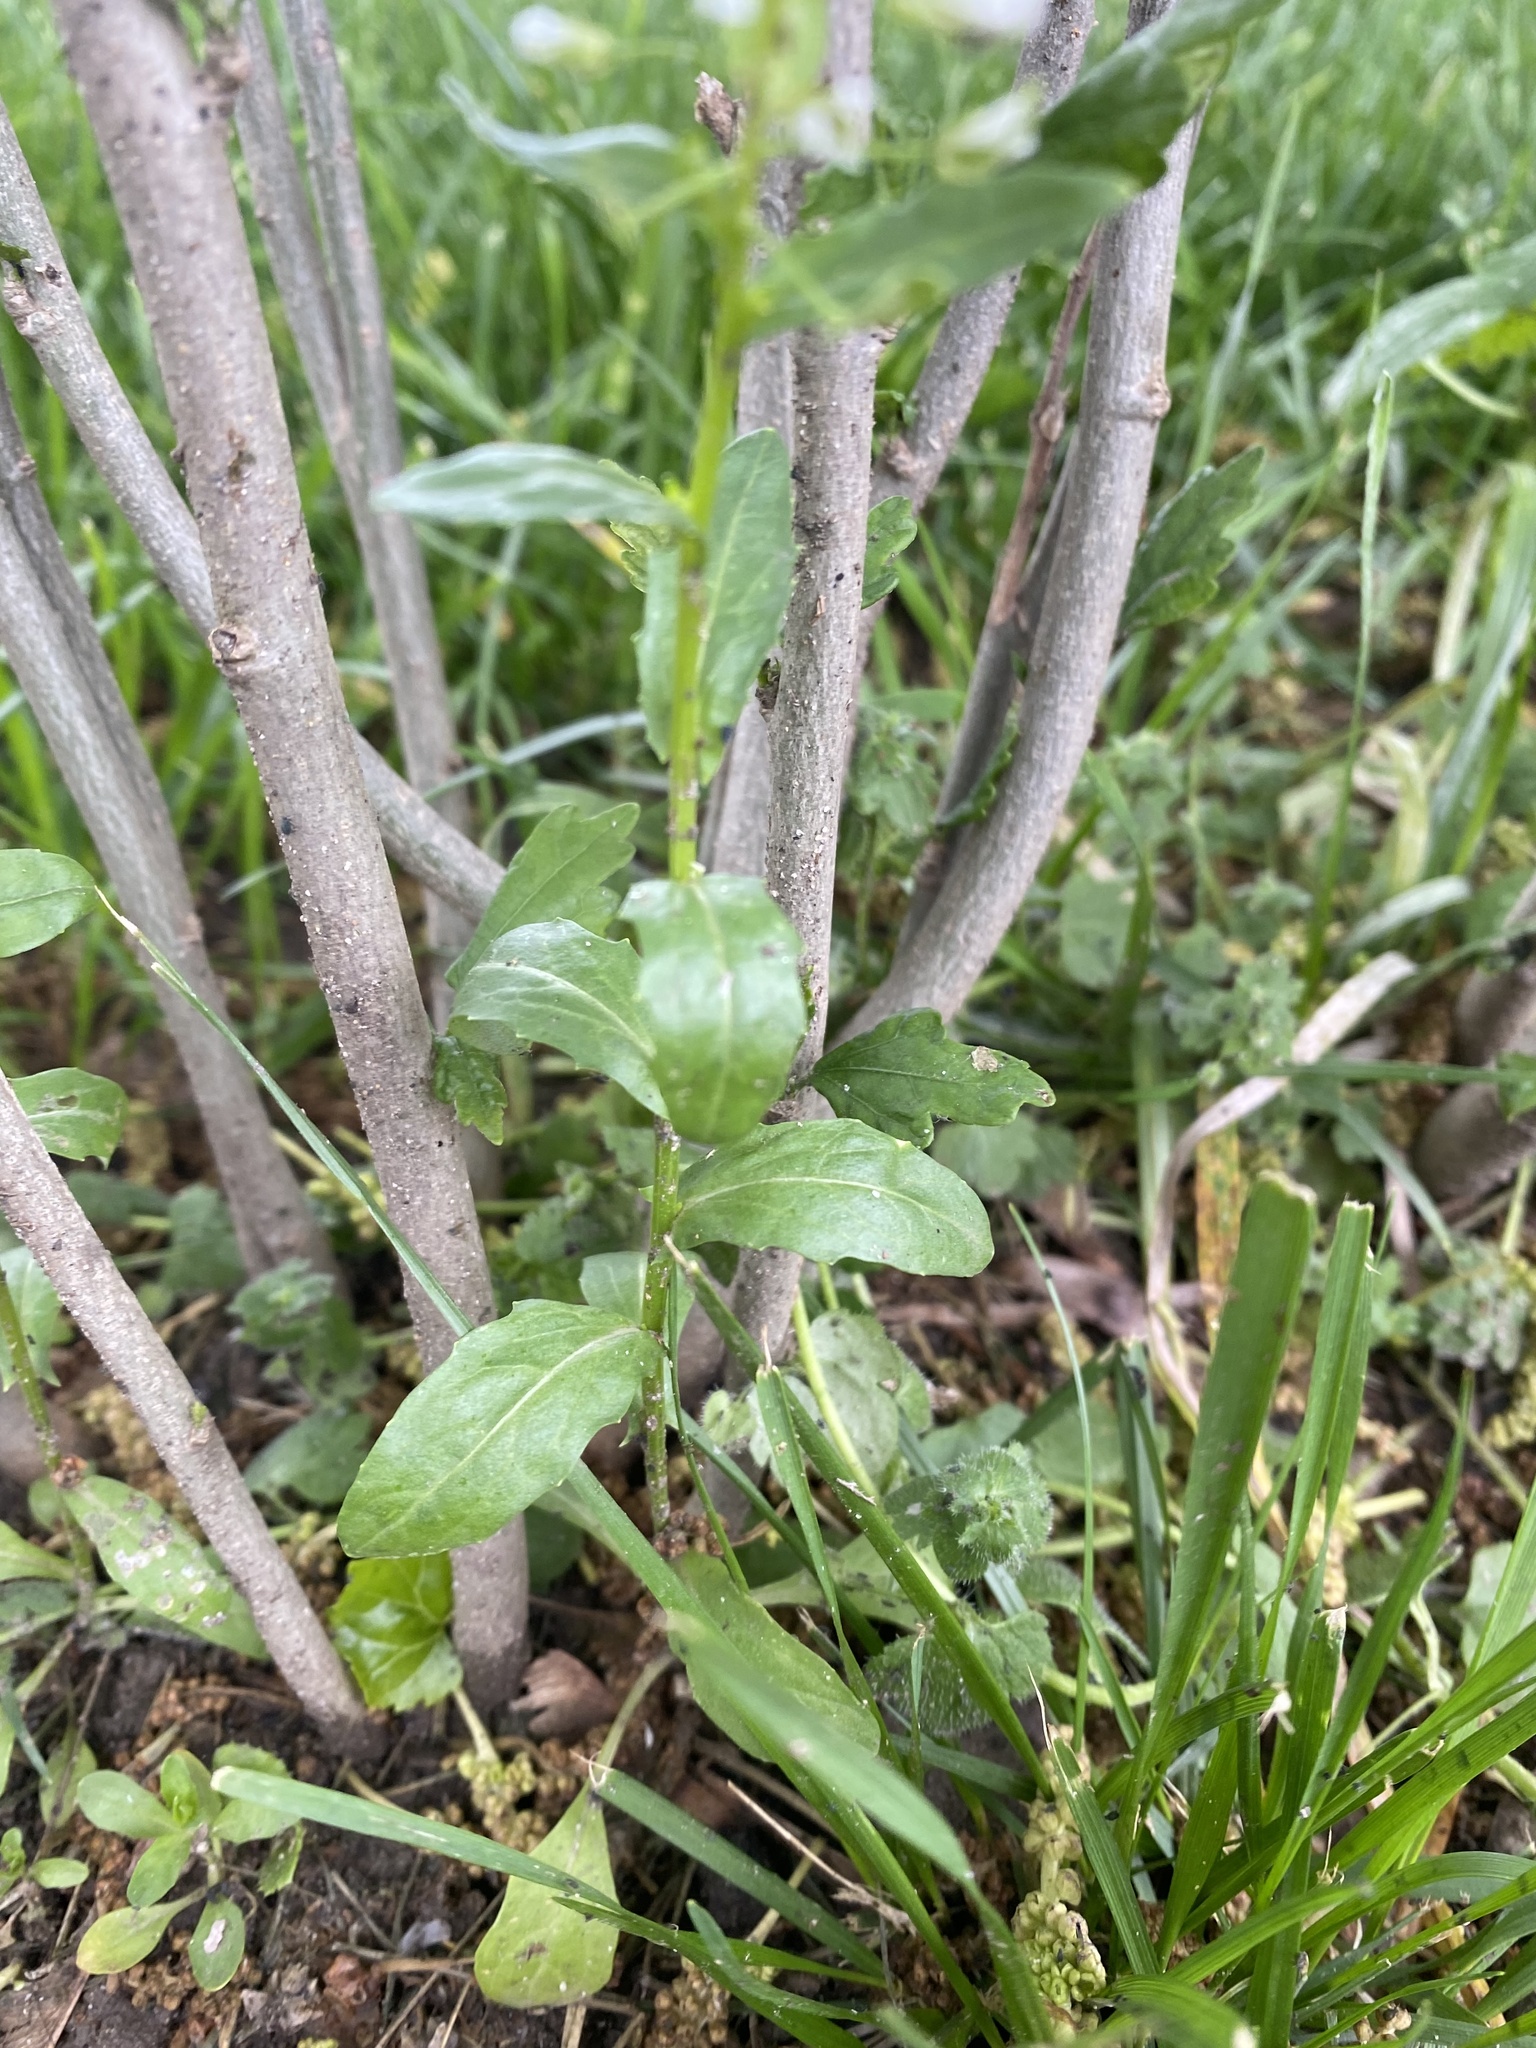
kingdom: Plantae
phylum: Tracheophyta
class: Magnoliopsida
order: Brassicales
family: Brassicaceae
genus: Thlaspi
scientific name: Thlaspi arvense
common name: Field pennycress
